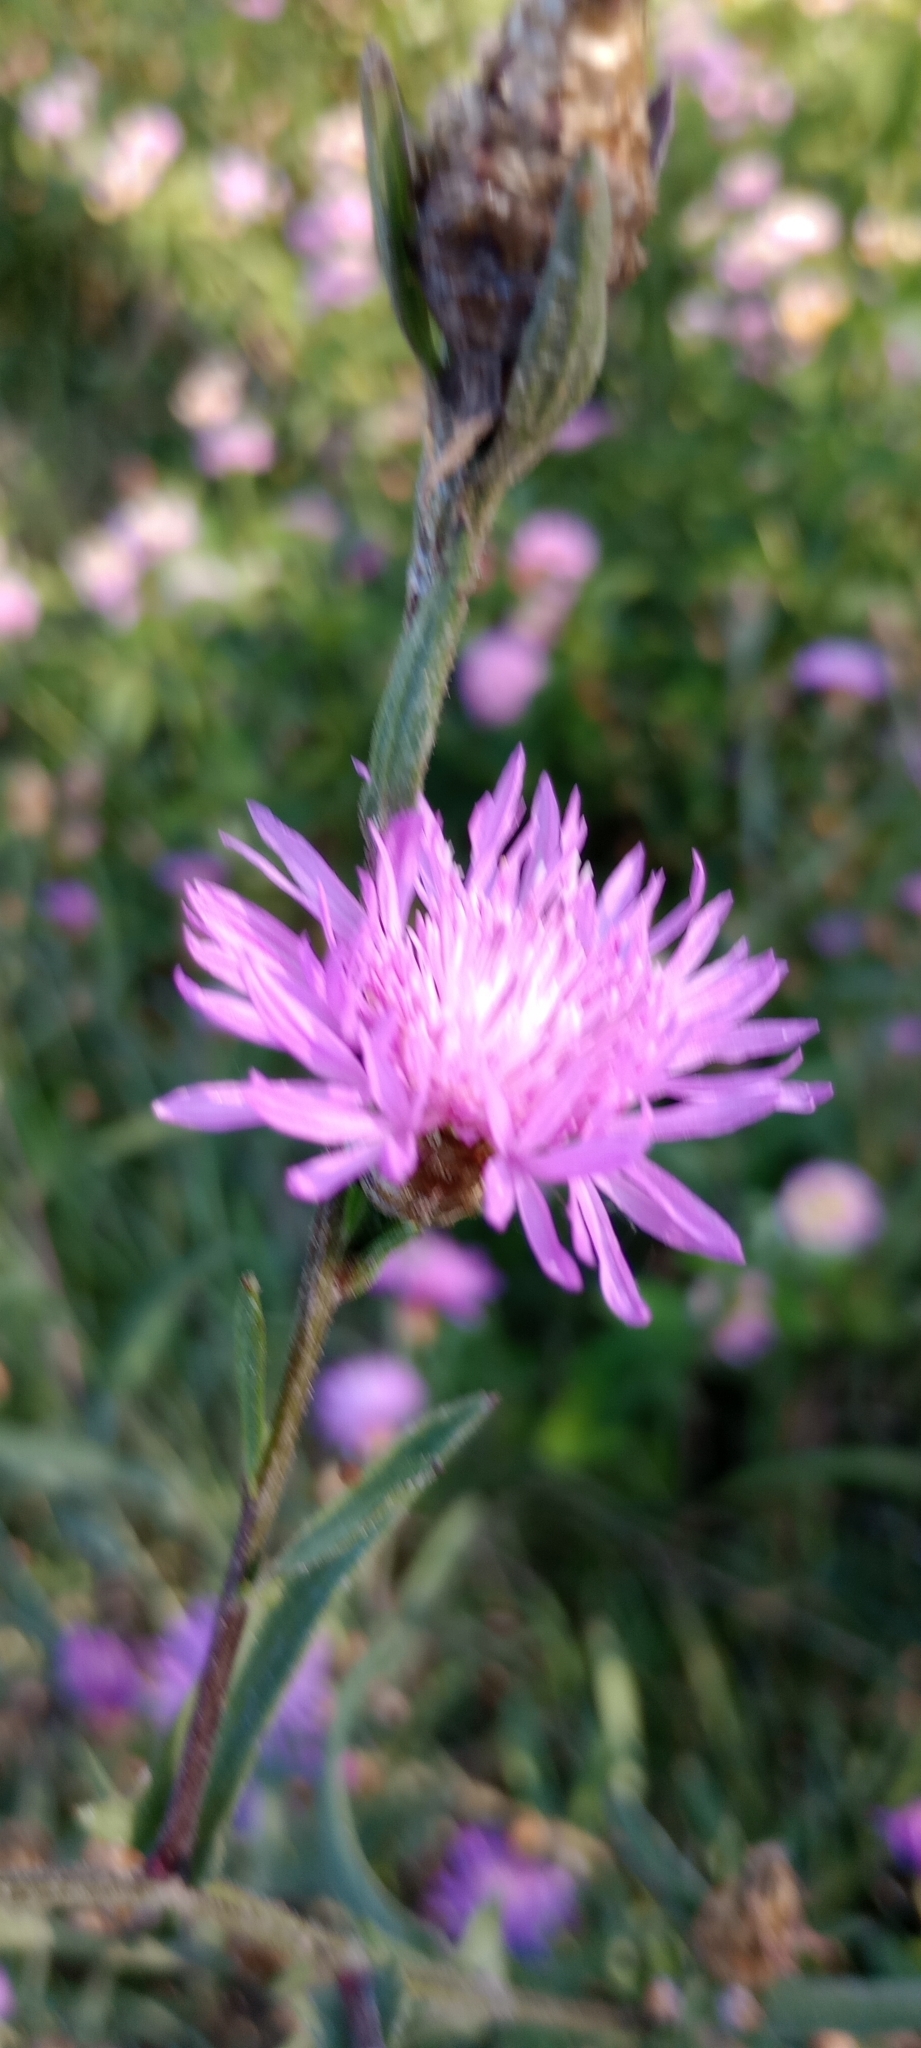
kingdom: Plantae
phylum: Tracheophyta
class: Magnoliopsida
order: Asterales
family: Asteraceae
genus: Centaurea
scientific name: Centaurea jacea
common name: Brown knapweed
